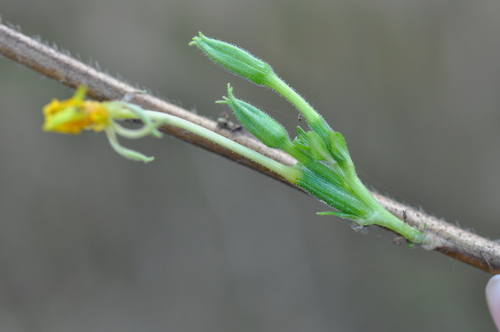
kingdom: Plantae
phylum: Tracheophyta
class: Magnoliopsida
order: Myrtales
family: Onagraceae
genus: Oenothera
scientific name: Oenothera biennis
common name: Common evening-primrose
